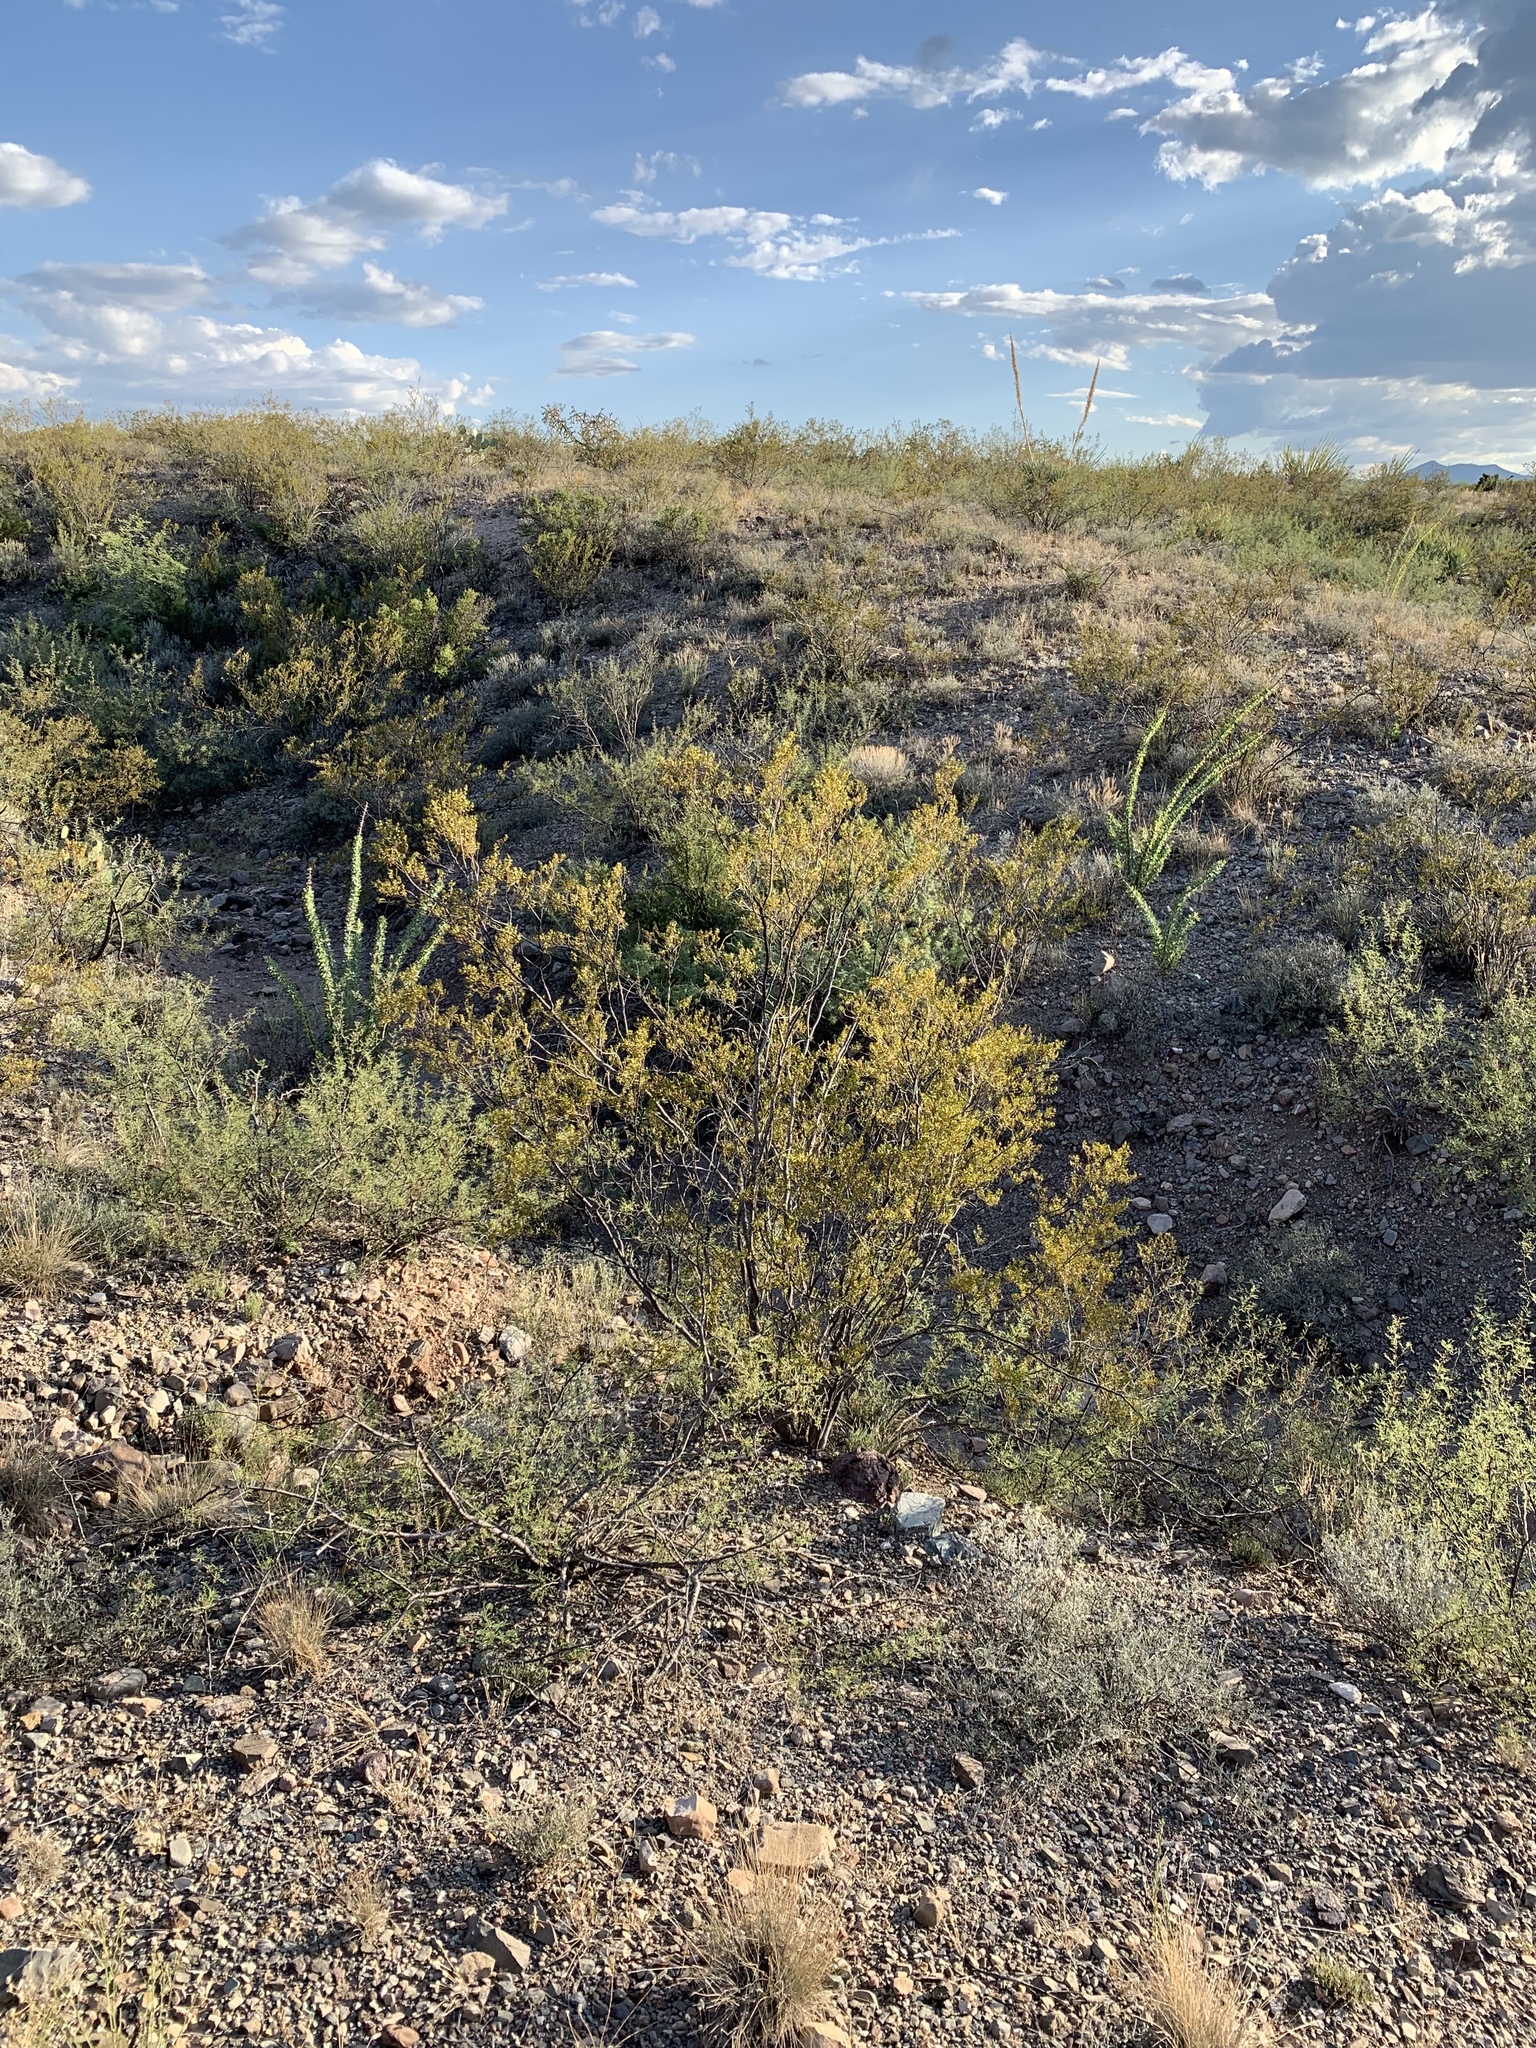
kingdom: Plantae
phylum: Tracheophyta
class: Magnoliopsida
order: Zygophyllales
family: Zygophyllaceae
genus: Larrea
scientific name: Larrea tridentata
